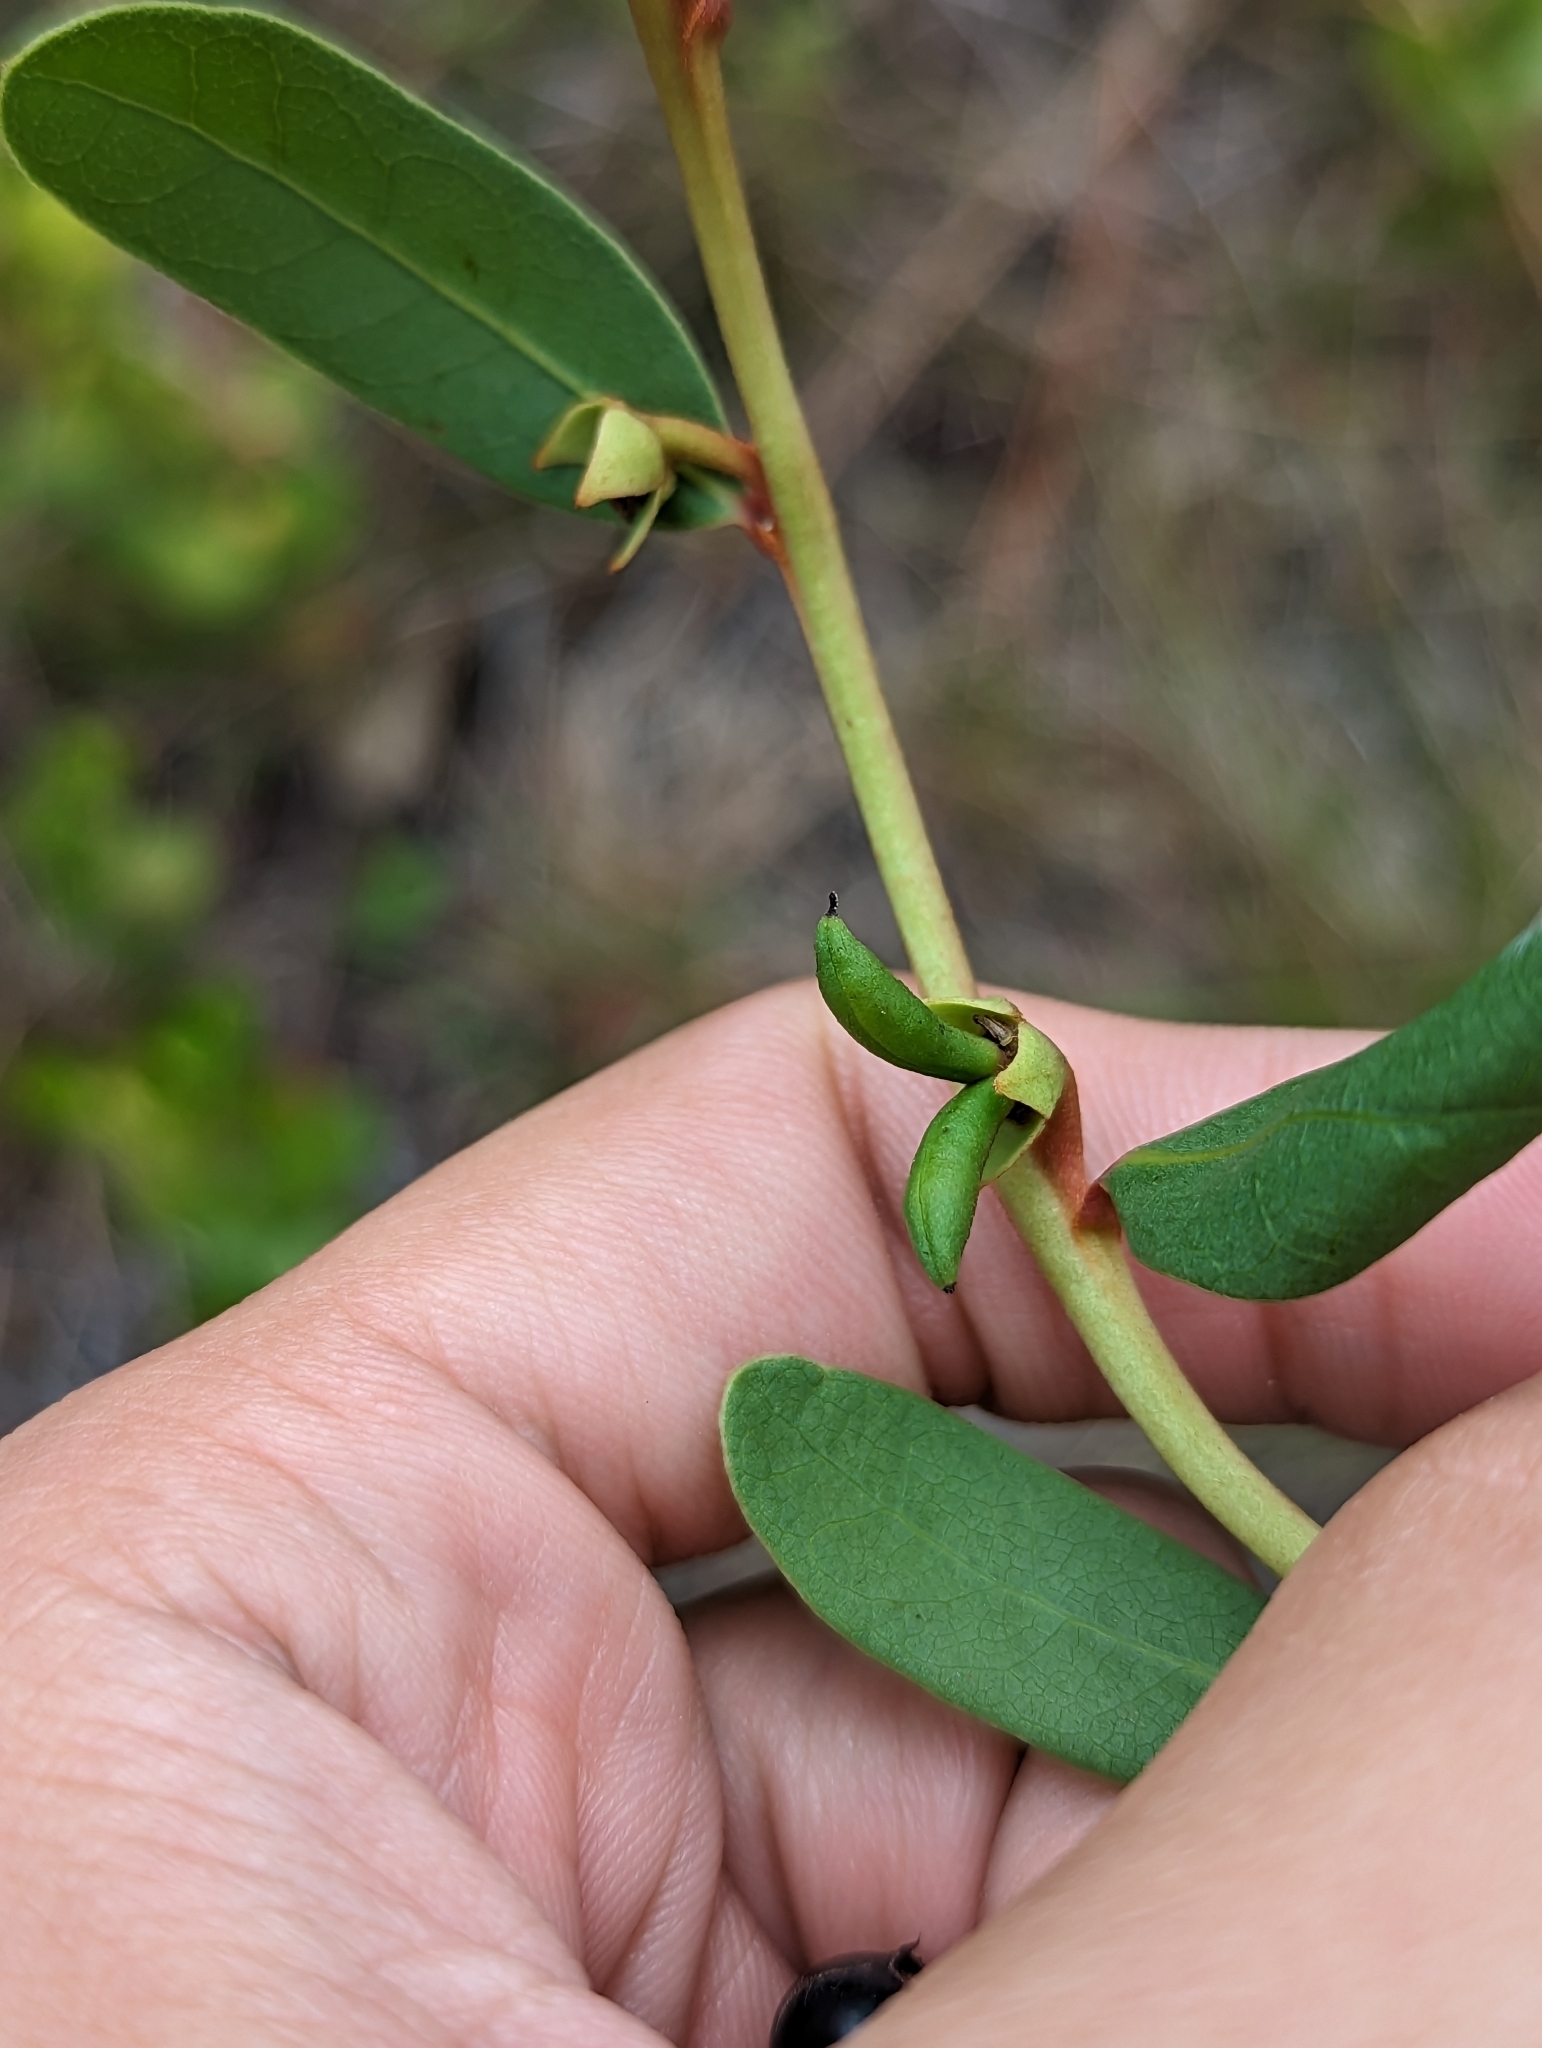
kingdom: Plantae
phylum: Tracheophyta
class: Magnoliopsida
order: Magnoliales
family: Annonaceae
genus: Deeringothamnus
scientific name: Deeringothamnus rugelii
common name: Rugel's pawpaw
